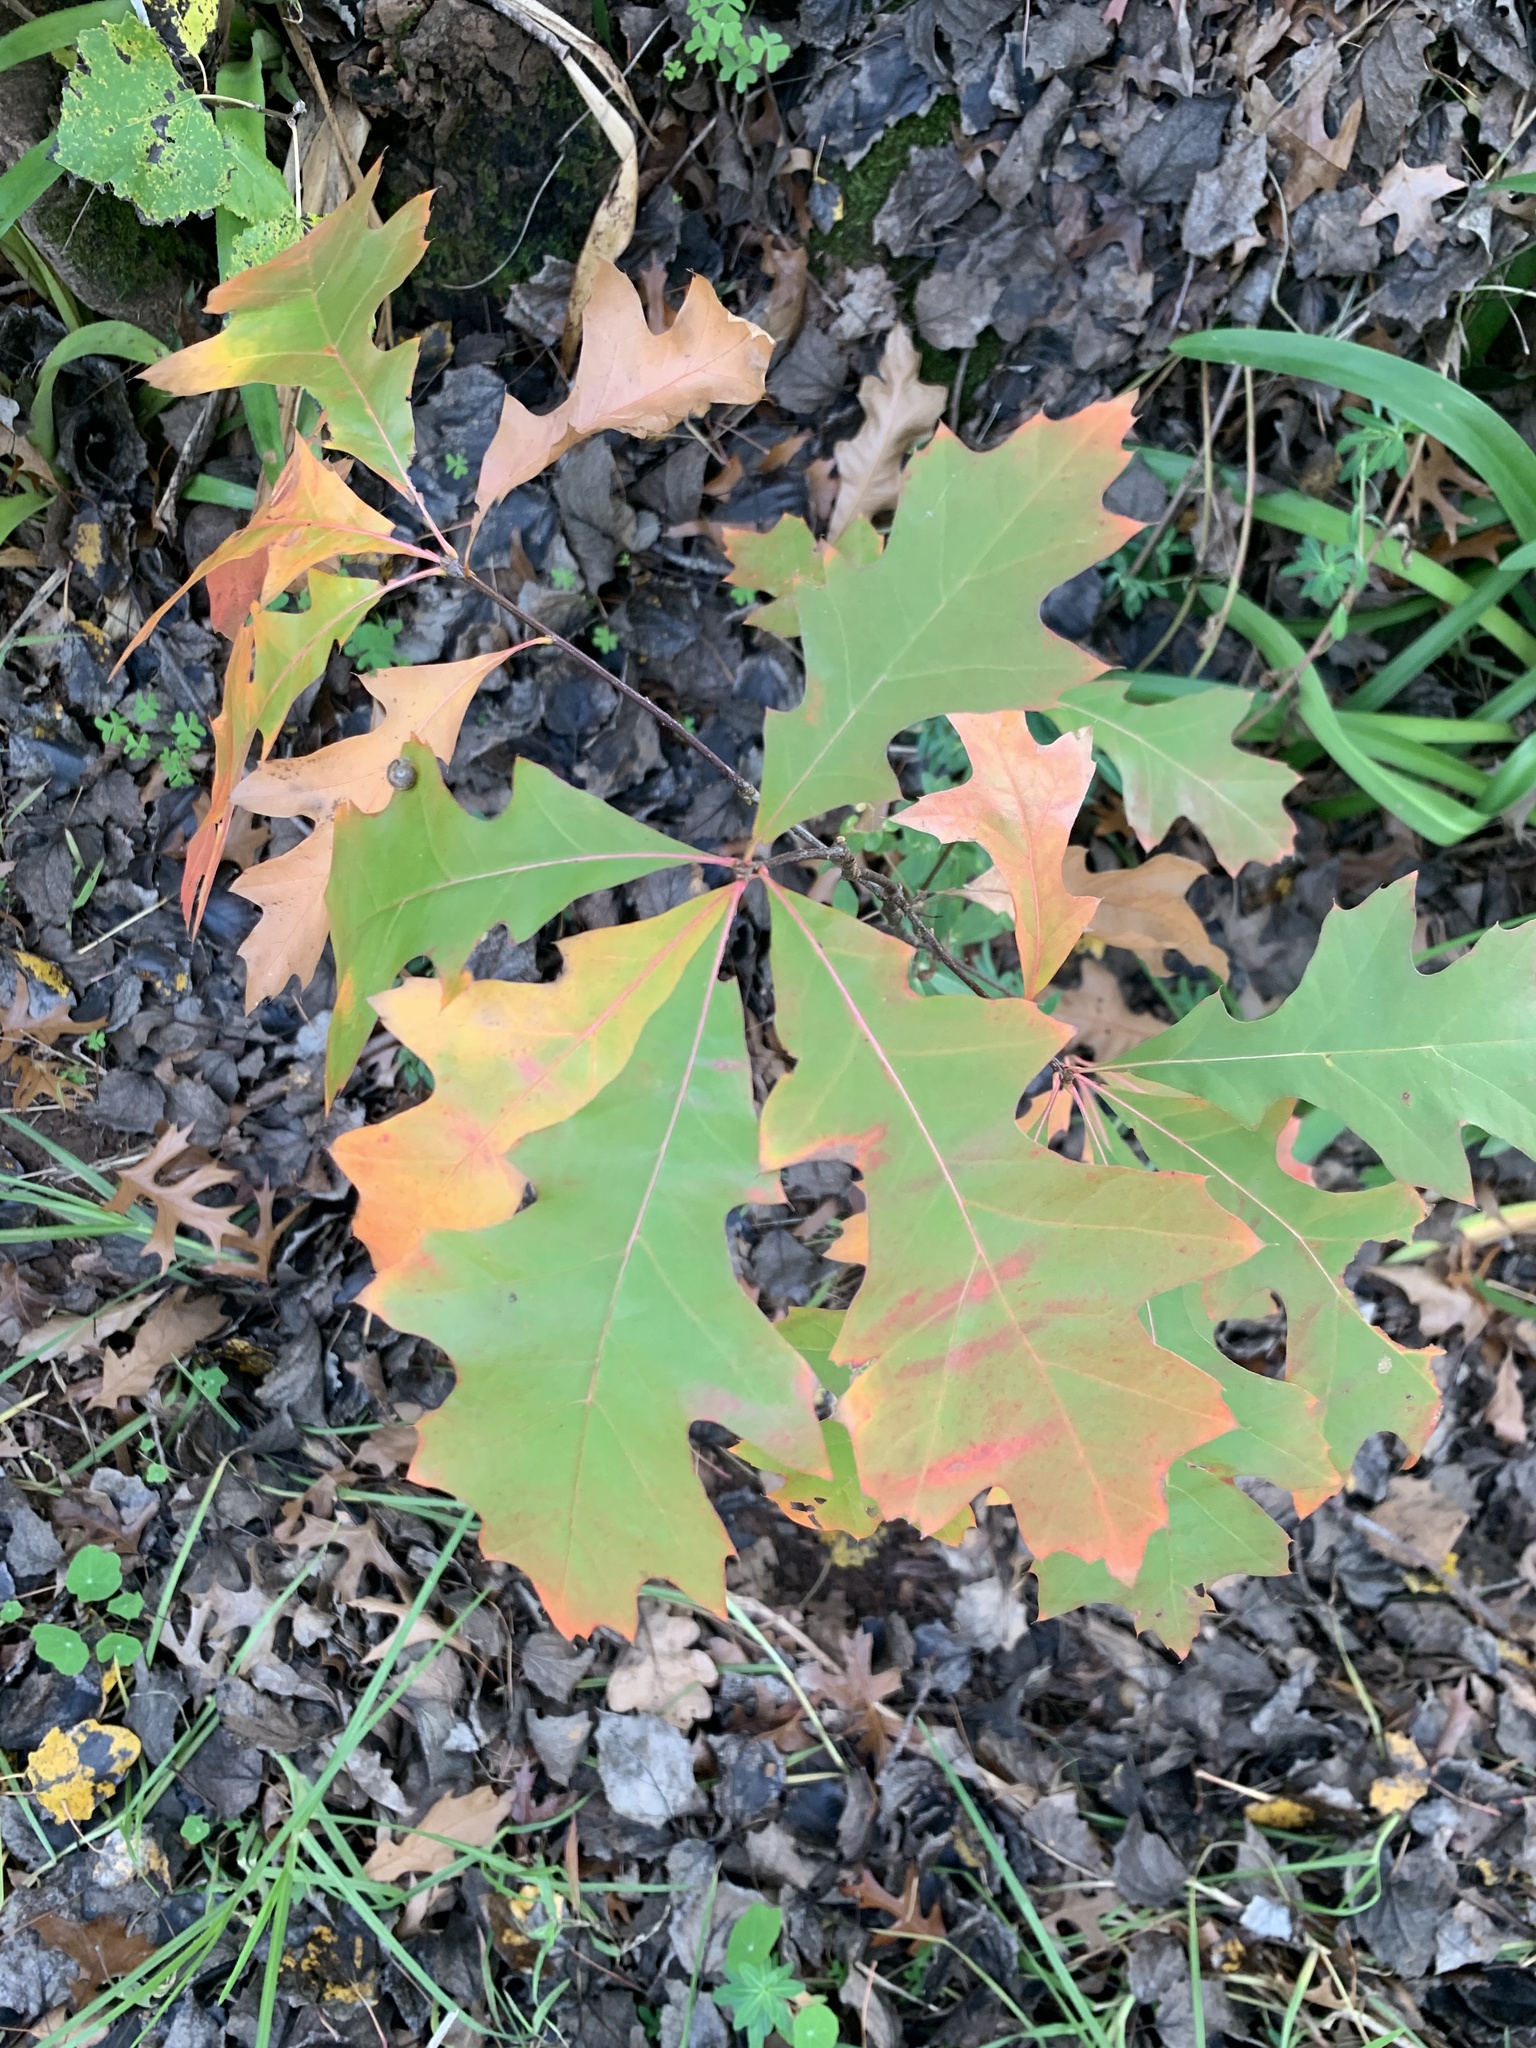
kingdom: Plantae
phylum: Tracheophyta
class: Magnoliopsida
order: Fagales
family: Fagaceae
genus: Quercus
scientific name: Quercus palustris
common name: Pin oak
